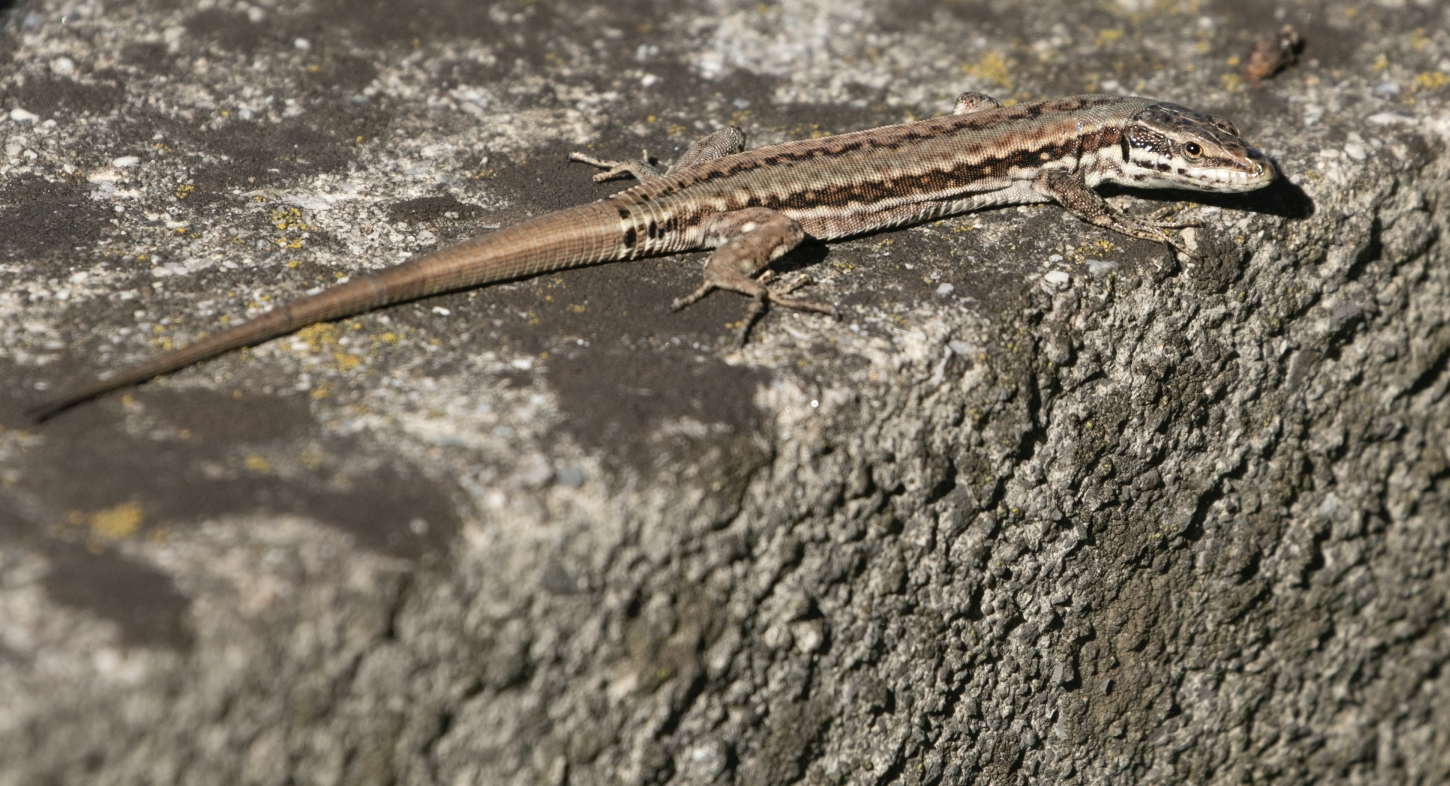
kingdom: Animalia
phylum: Chordata
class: Squamata
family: Lacertidae
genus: Podarcis
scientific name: Podarcis muralis
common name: Common wall lizard
